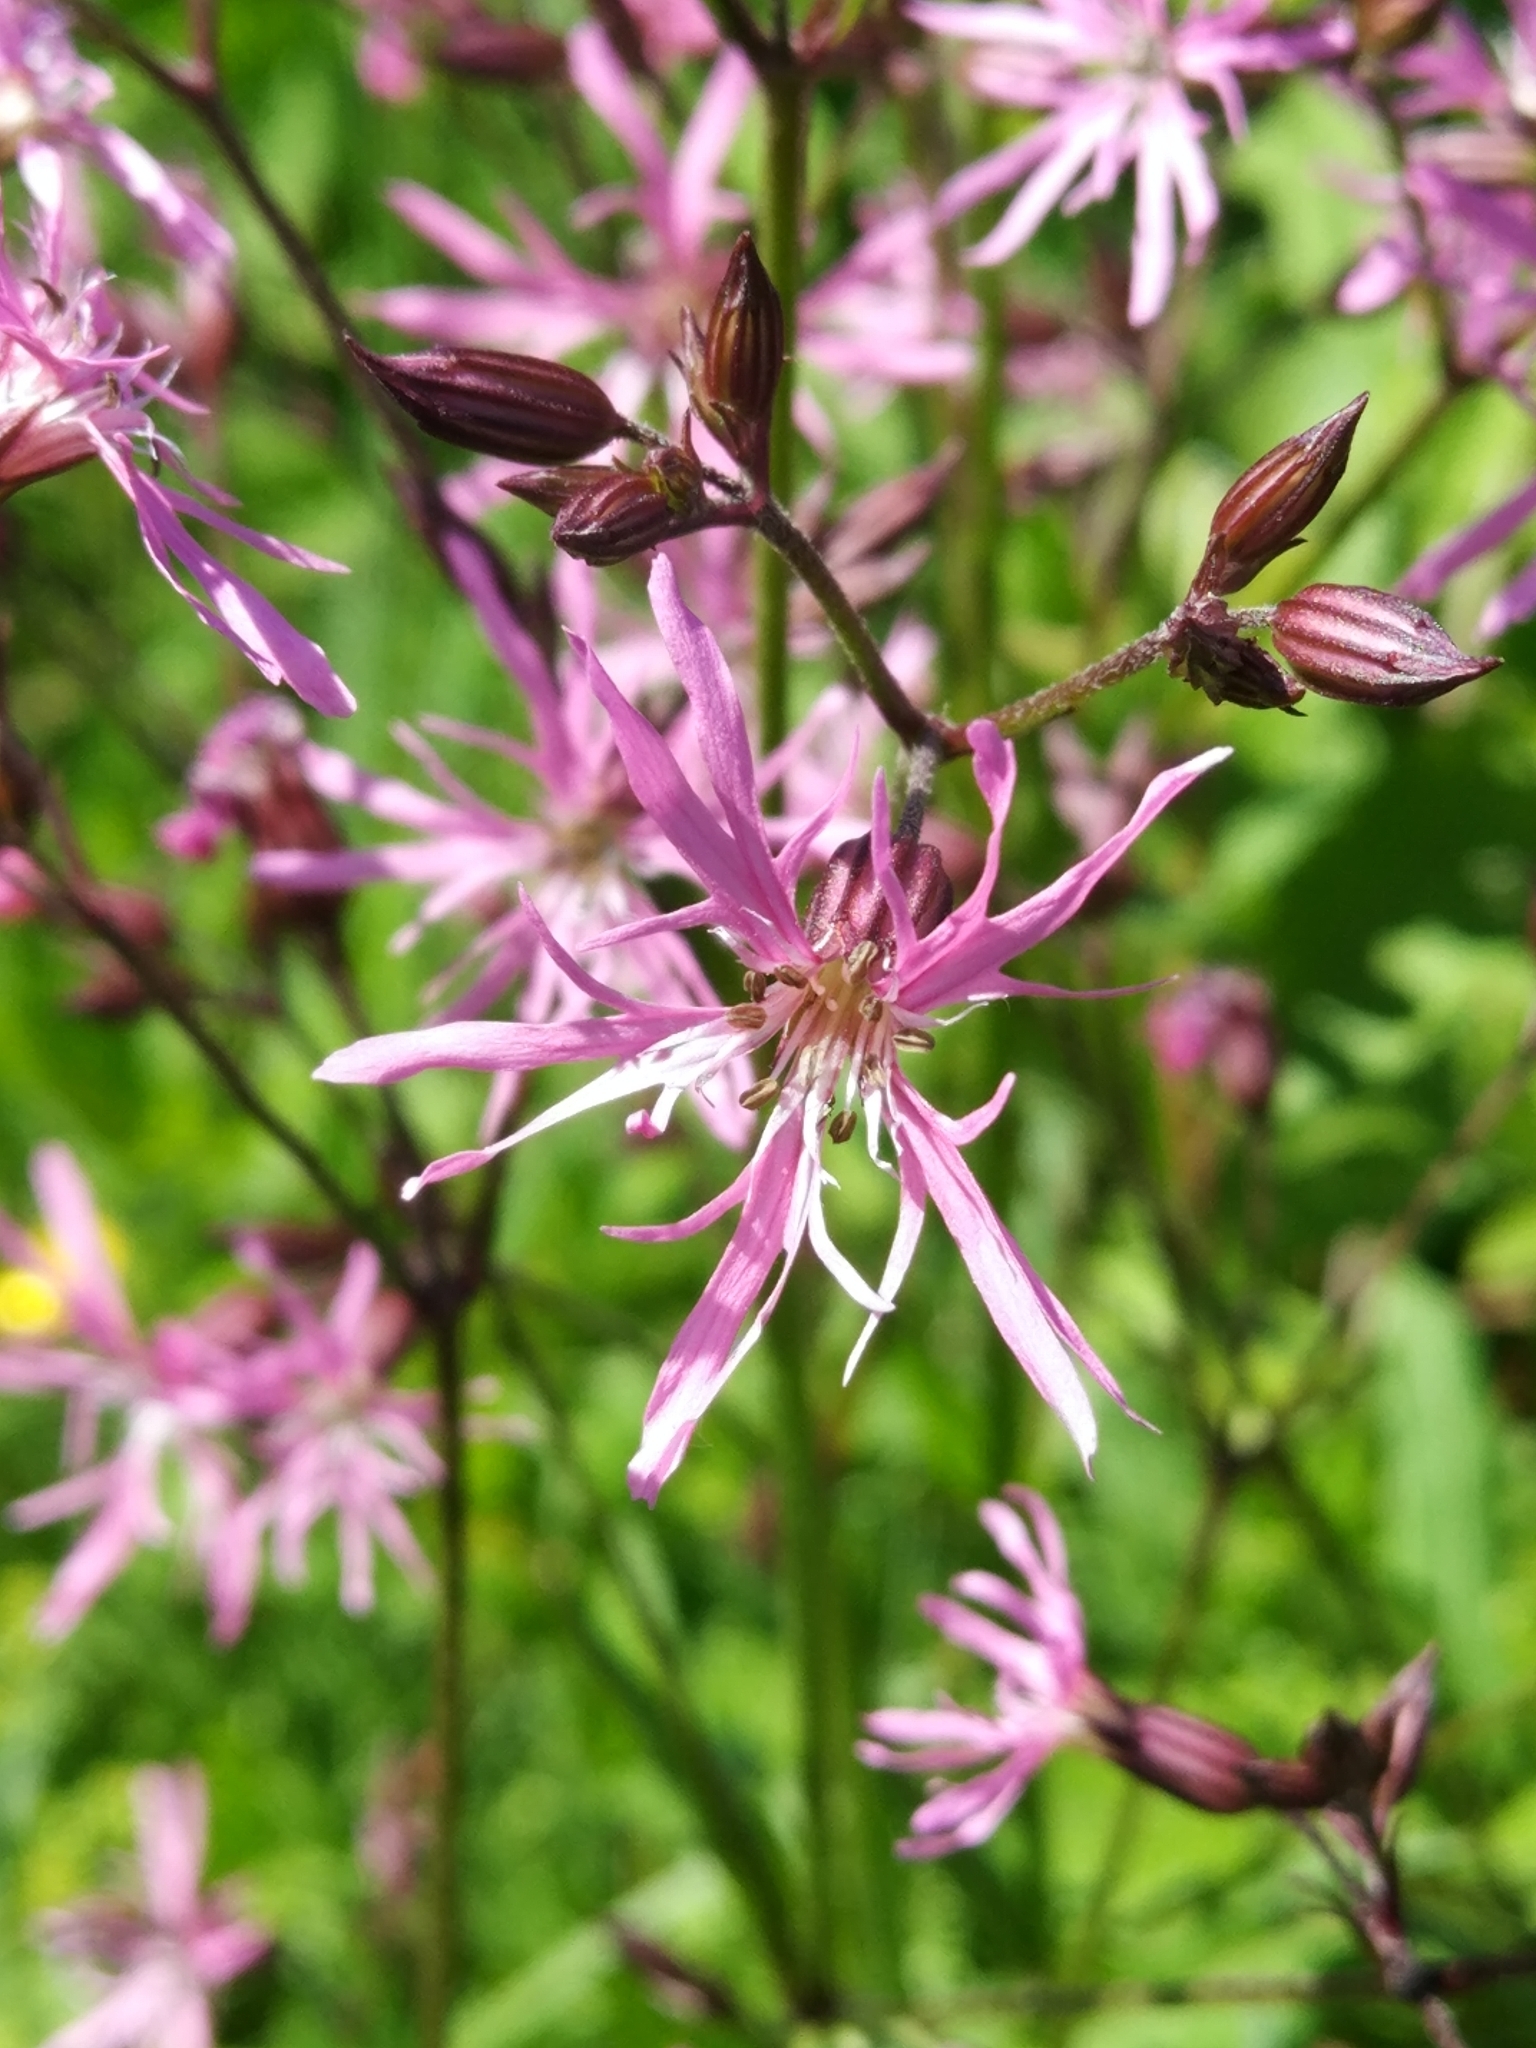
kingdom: Plantae
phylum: Tracheophyta
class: Magnoliopsida
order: Caryophyllales
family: Caryophyllaceae
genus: Silene
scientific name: Silene flos-cuculi
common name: Ragged-robin
